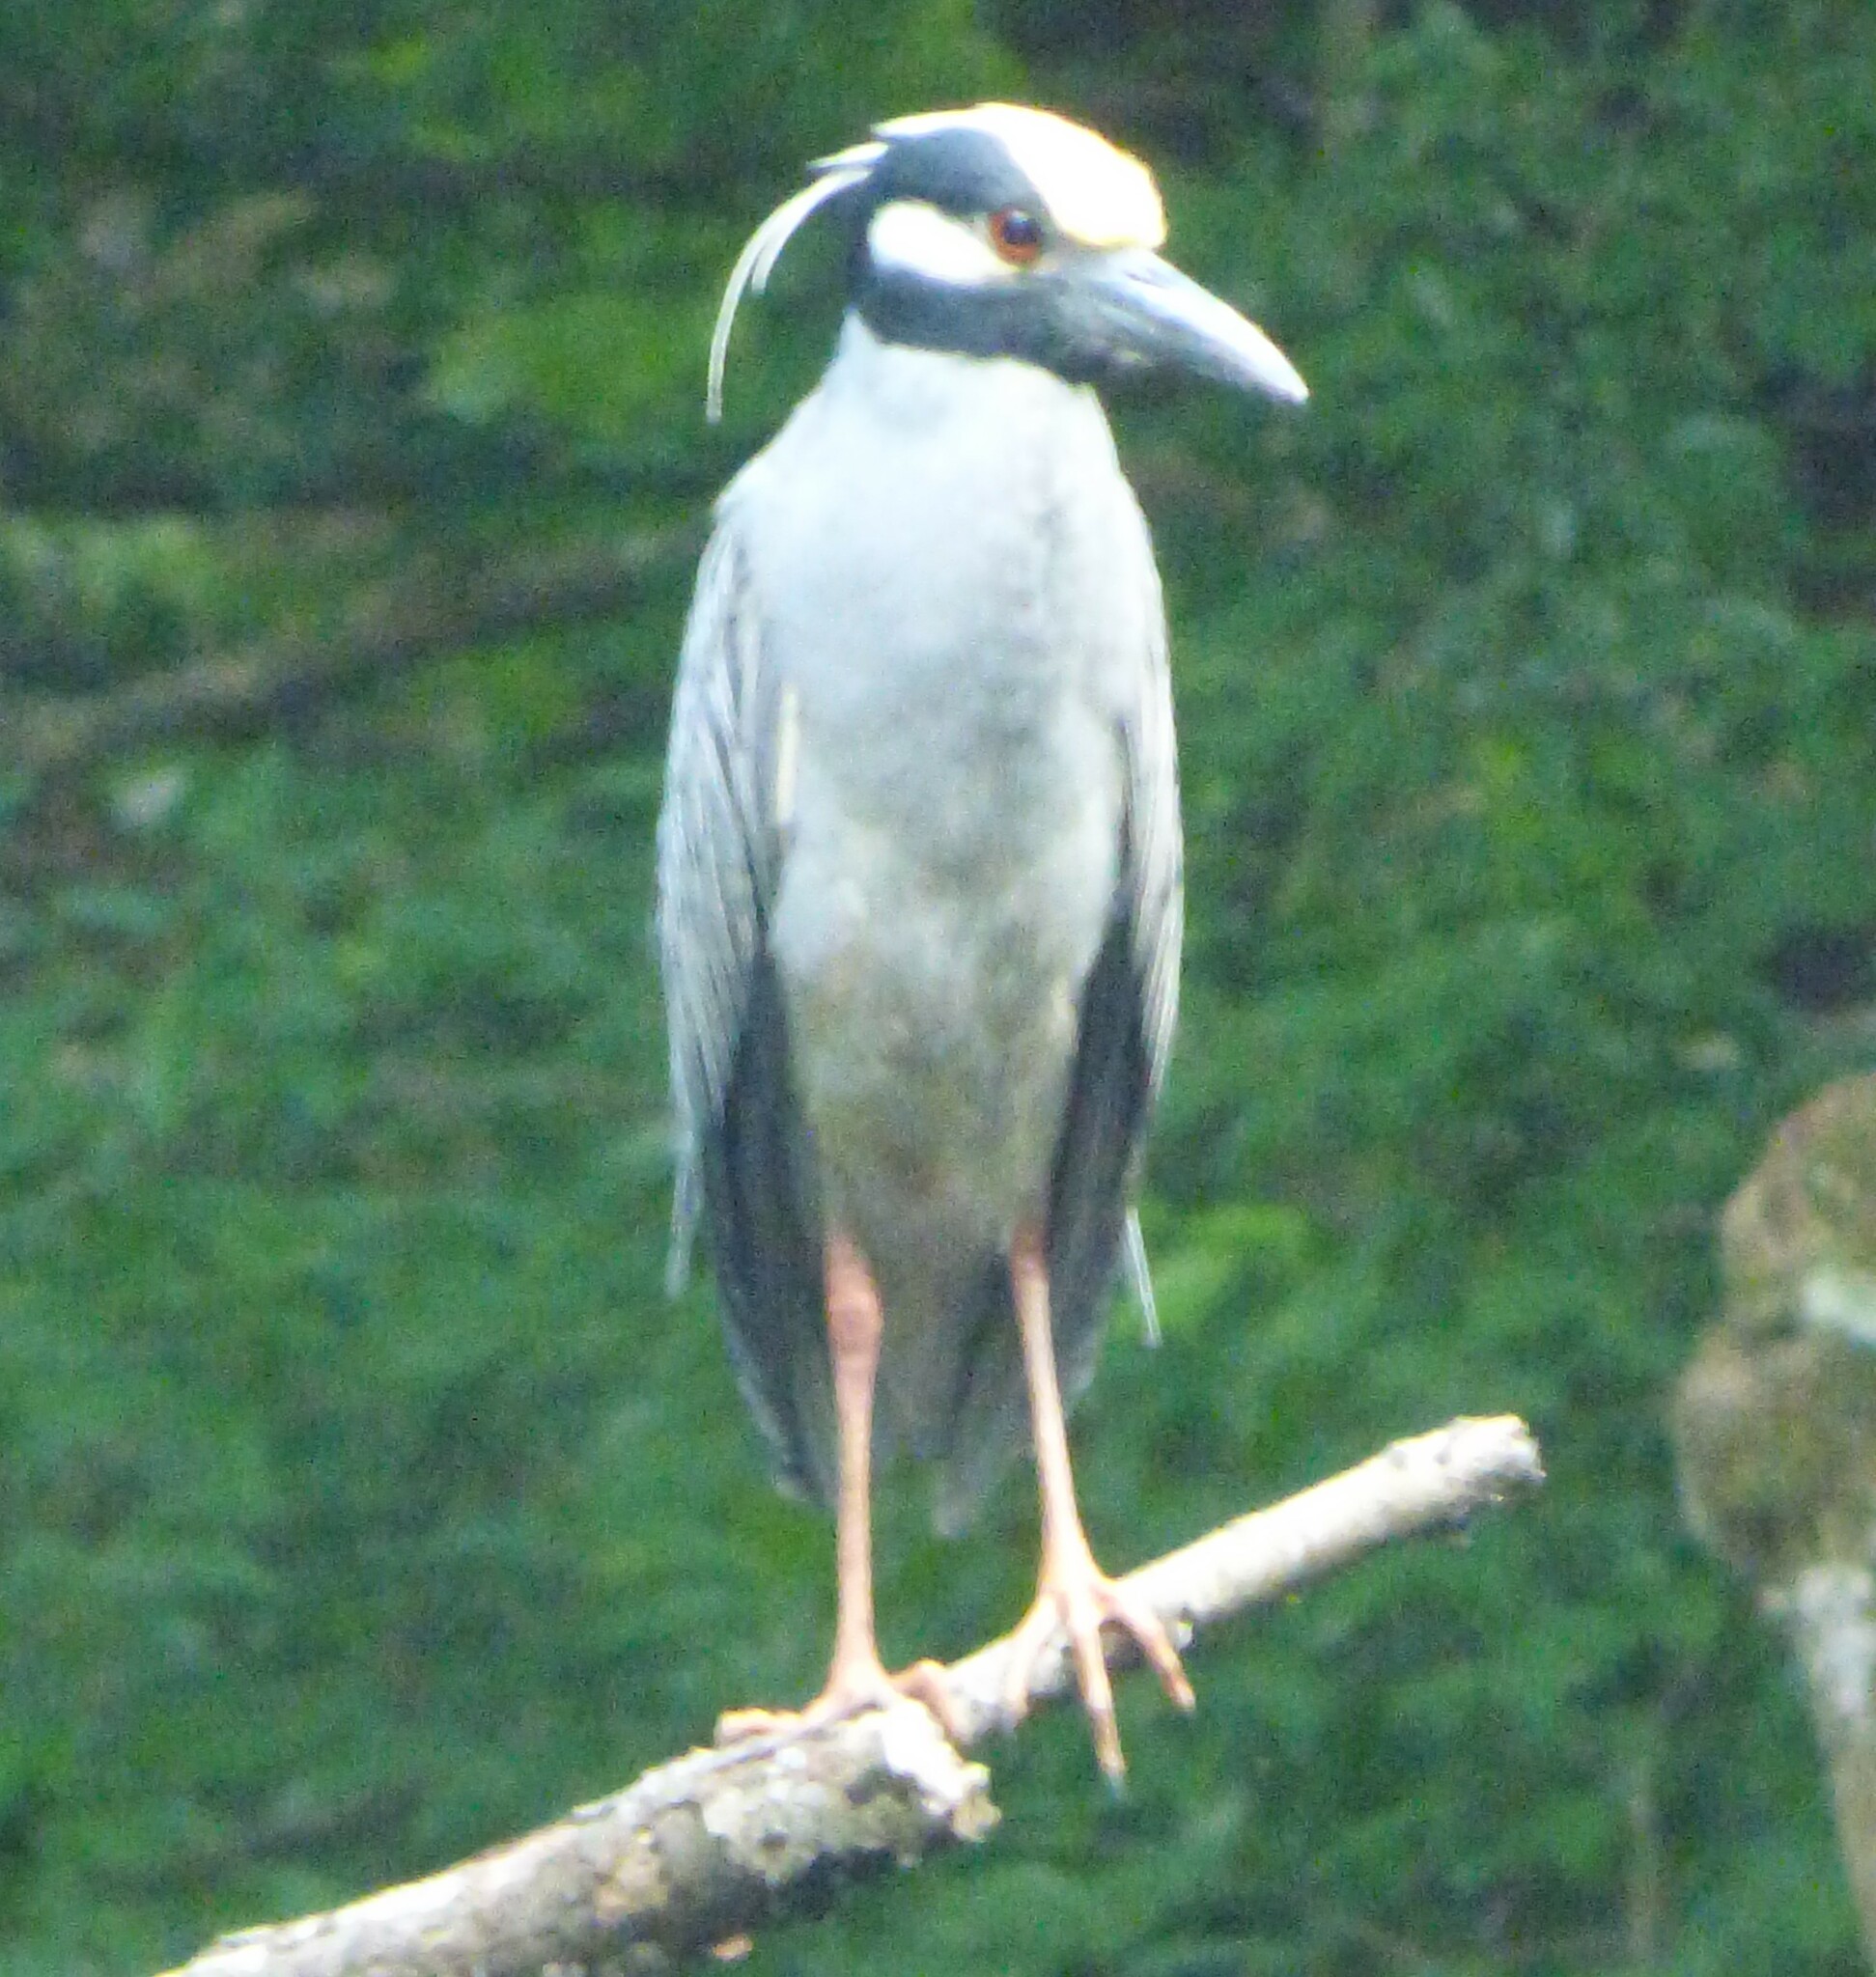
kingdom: Animalia
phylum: Chordata
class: Aves
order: Pelecaniformes
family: Ardeidae
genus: Nyctanassa
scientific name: Nyctanassa violacea
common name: Yellow-crowned night heron
